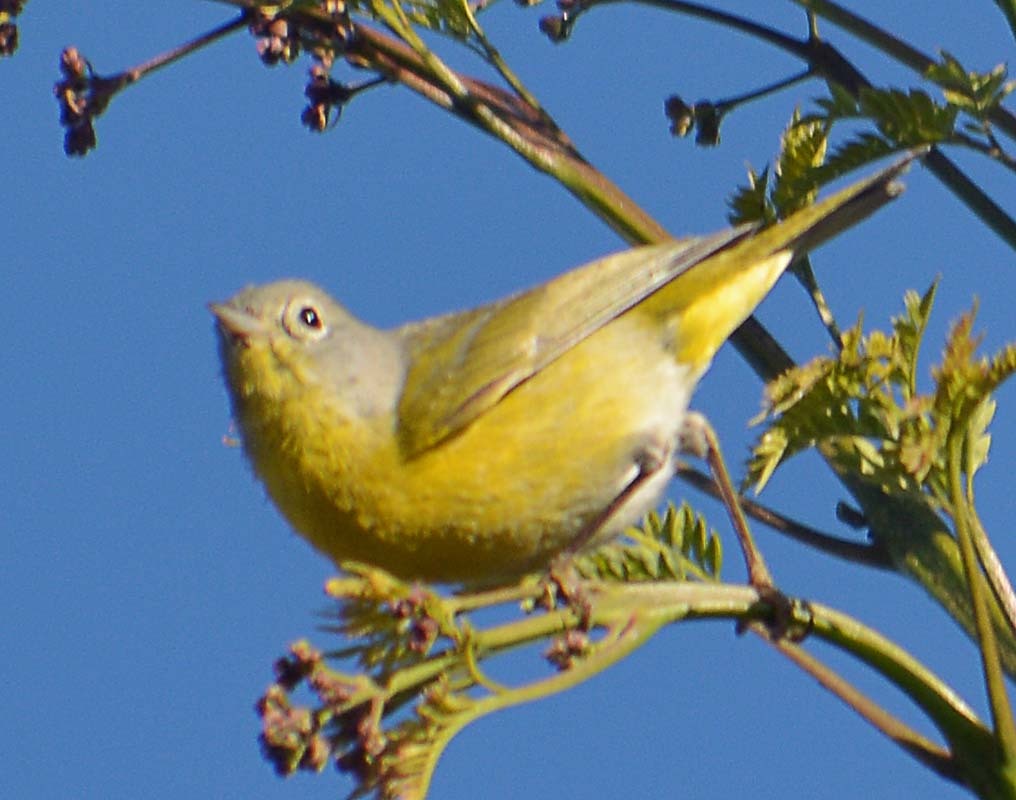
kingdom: Animalia
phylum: Chordata
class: Aves
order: Passeriformes
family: Parulidae
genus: Leiothlypis
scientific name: Leiothlypis ruficapilla
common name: Nashville warbler
